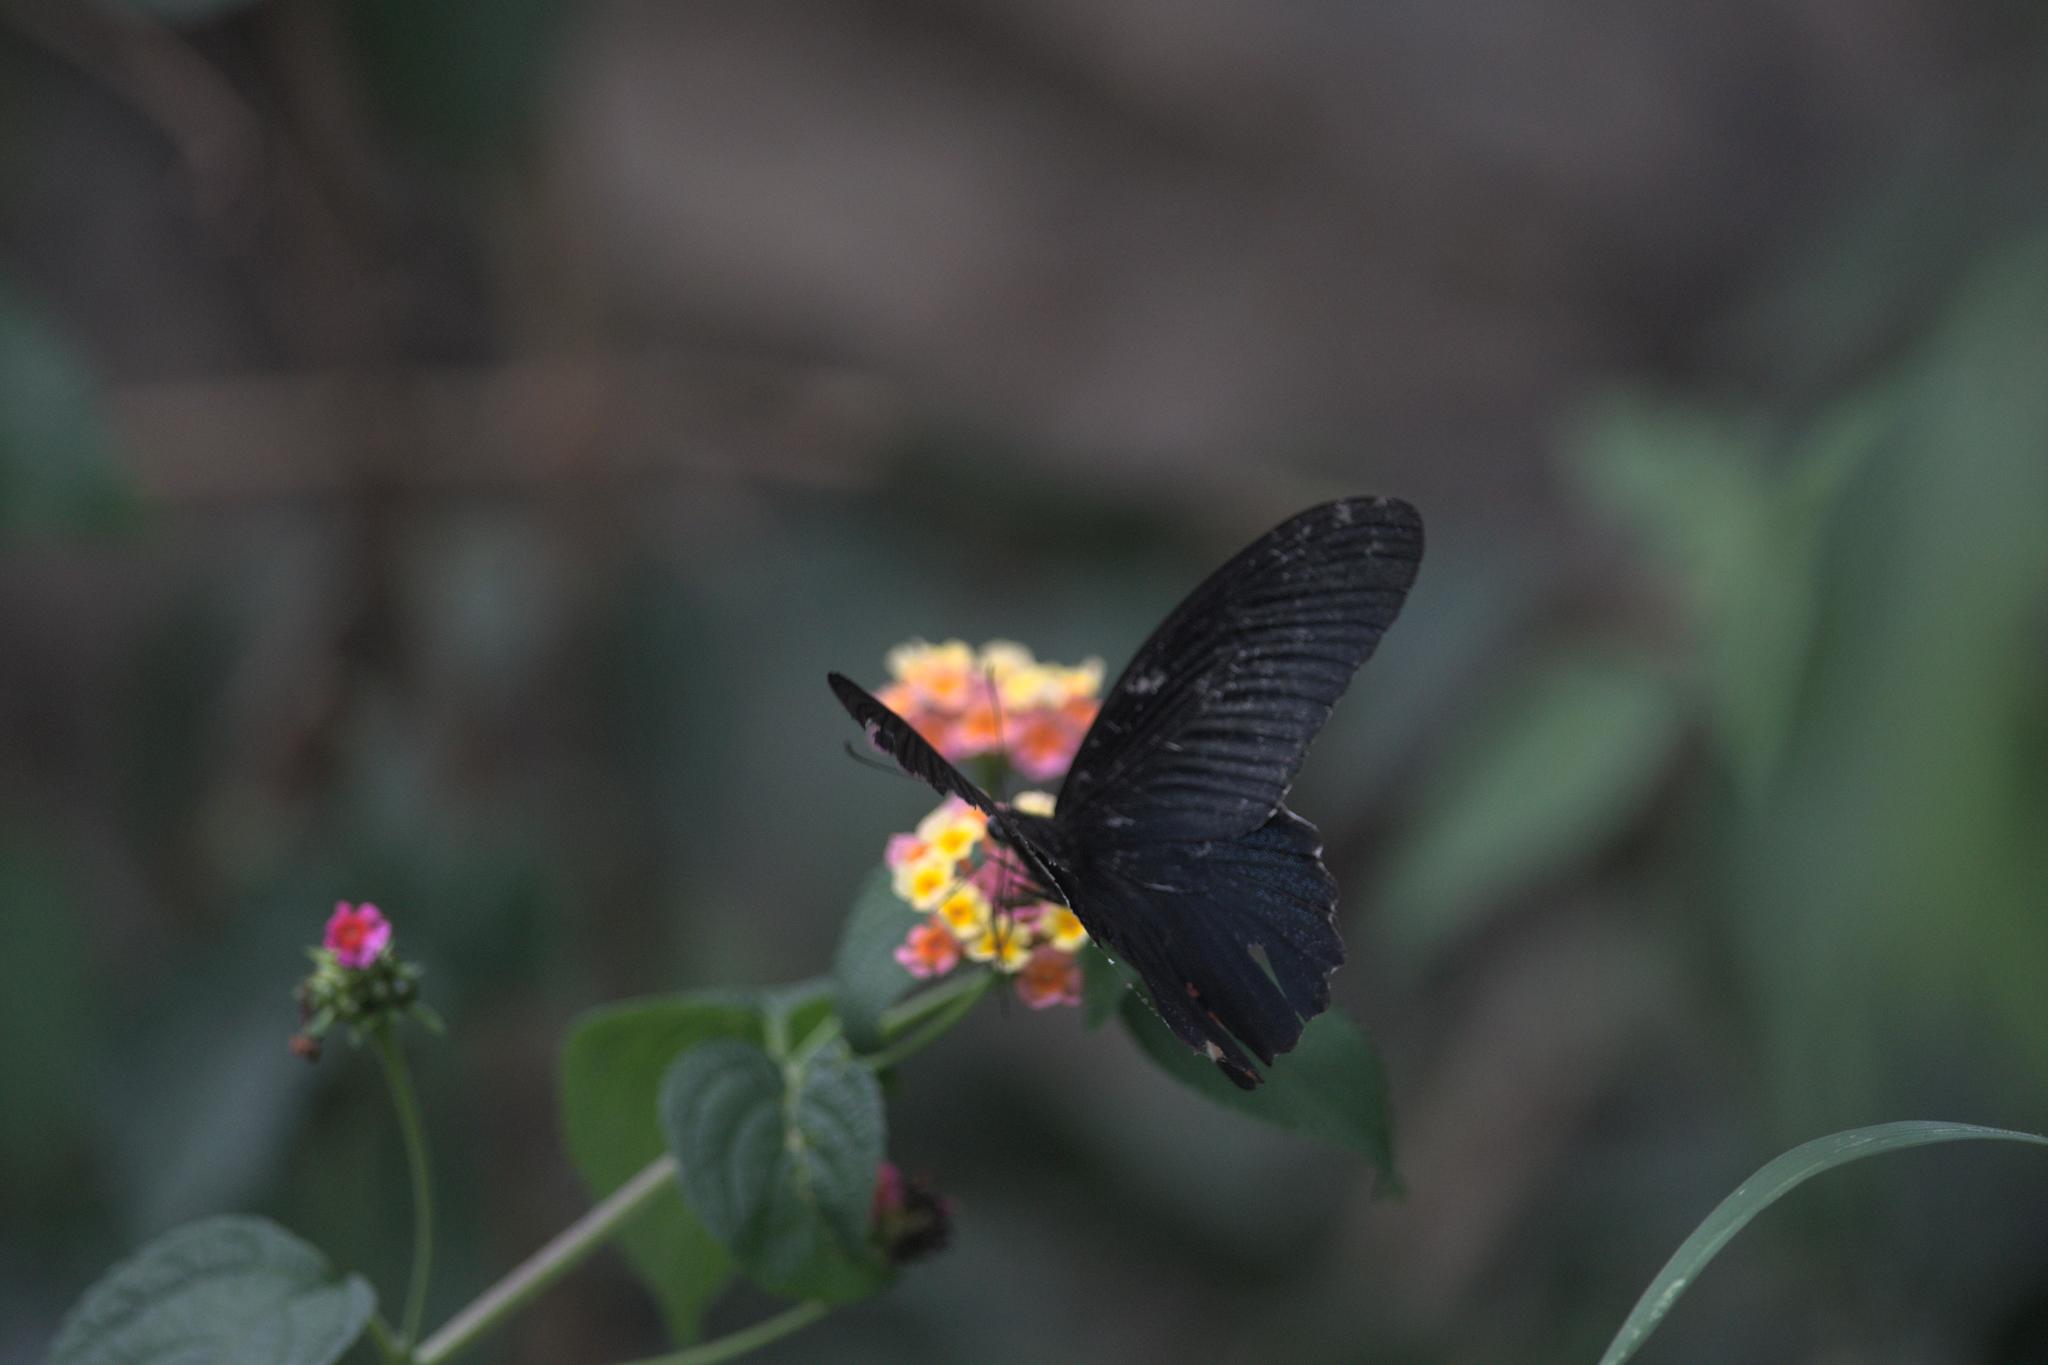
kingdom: Animalia
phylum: Arthropoda
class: Insecta
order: Lepidoptera
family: Papilionidae
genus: Papilio
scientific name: Papilio protenor
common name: Spangle
